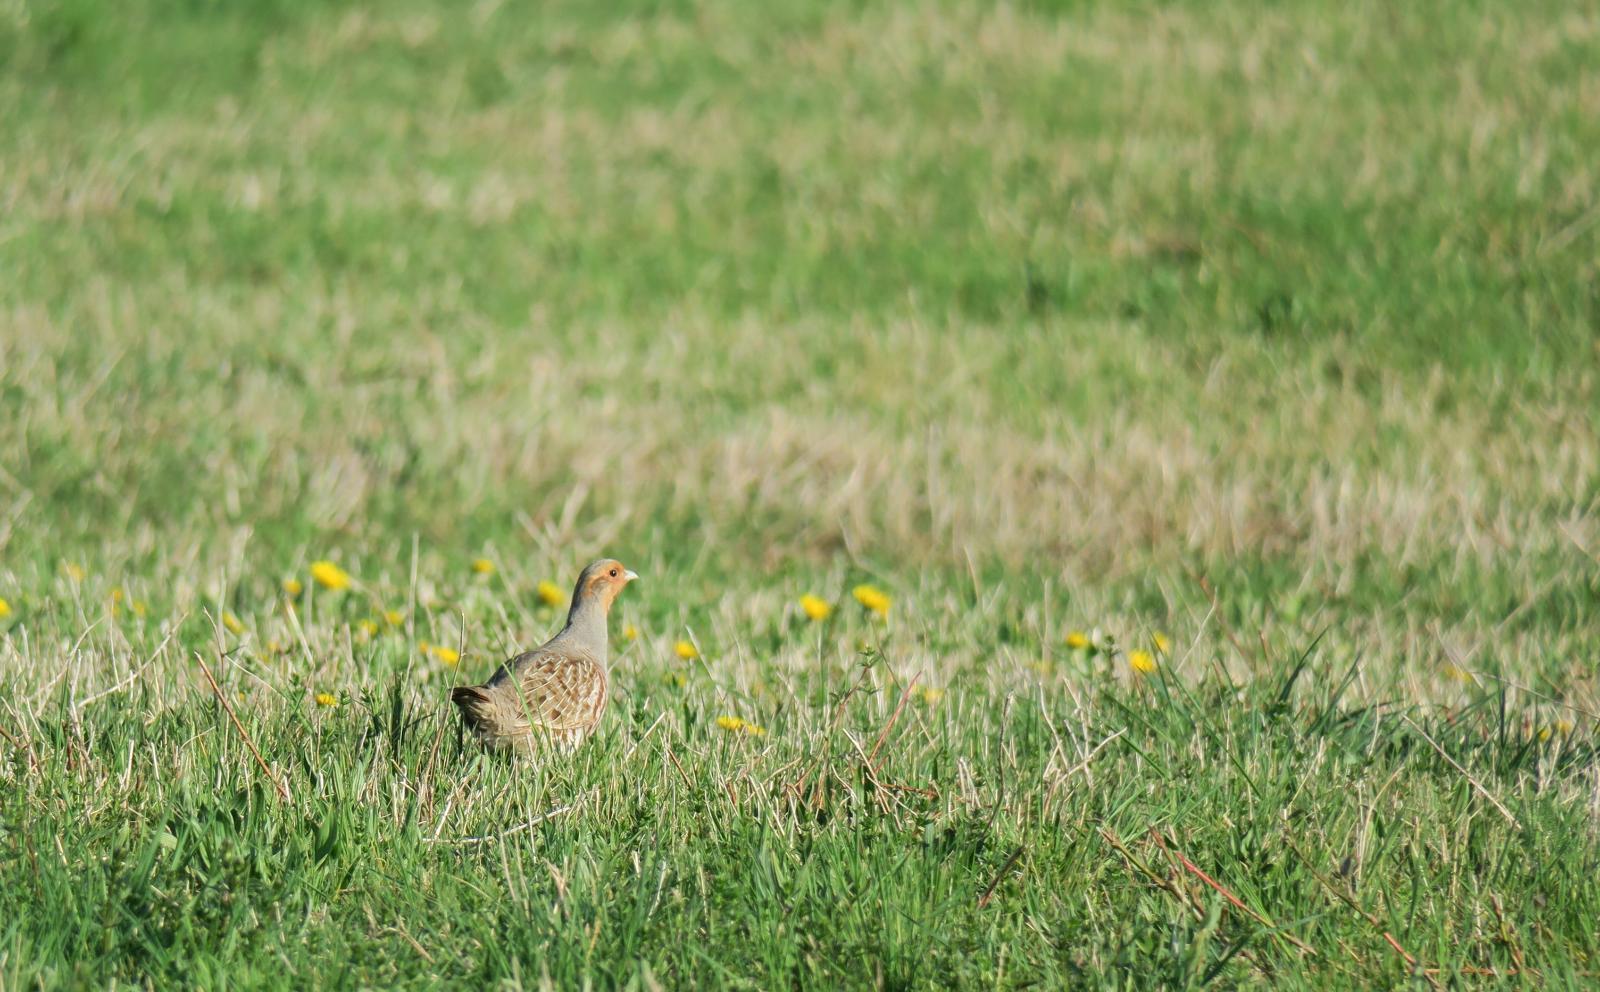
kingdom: Animalia
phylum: Chordata
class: Aves
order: Galliformes
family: Phasianidae
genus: Perdix
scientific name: Perdix perdix
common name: Grey partridge
